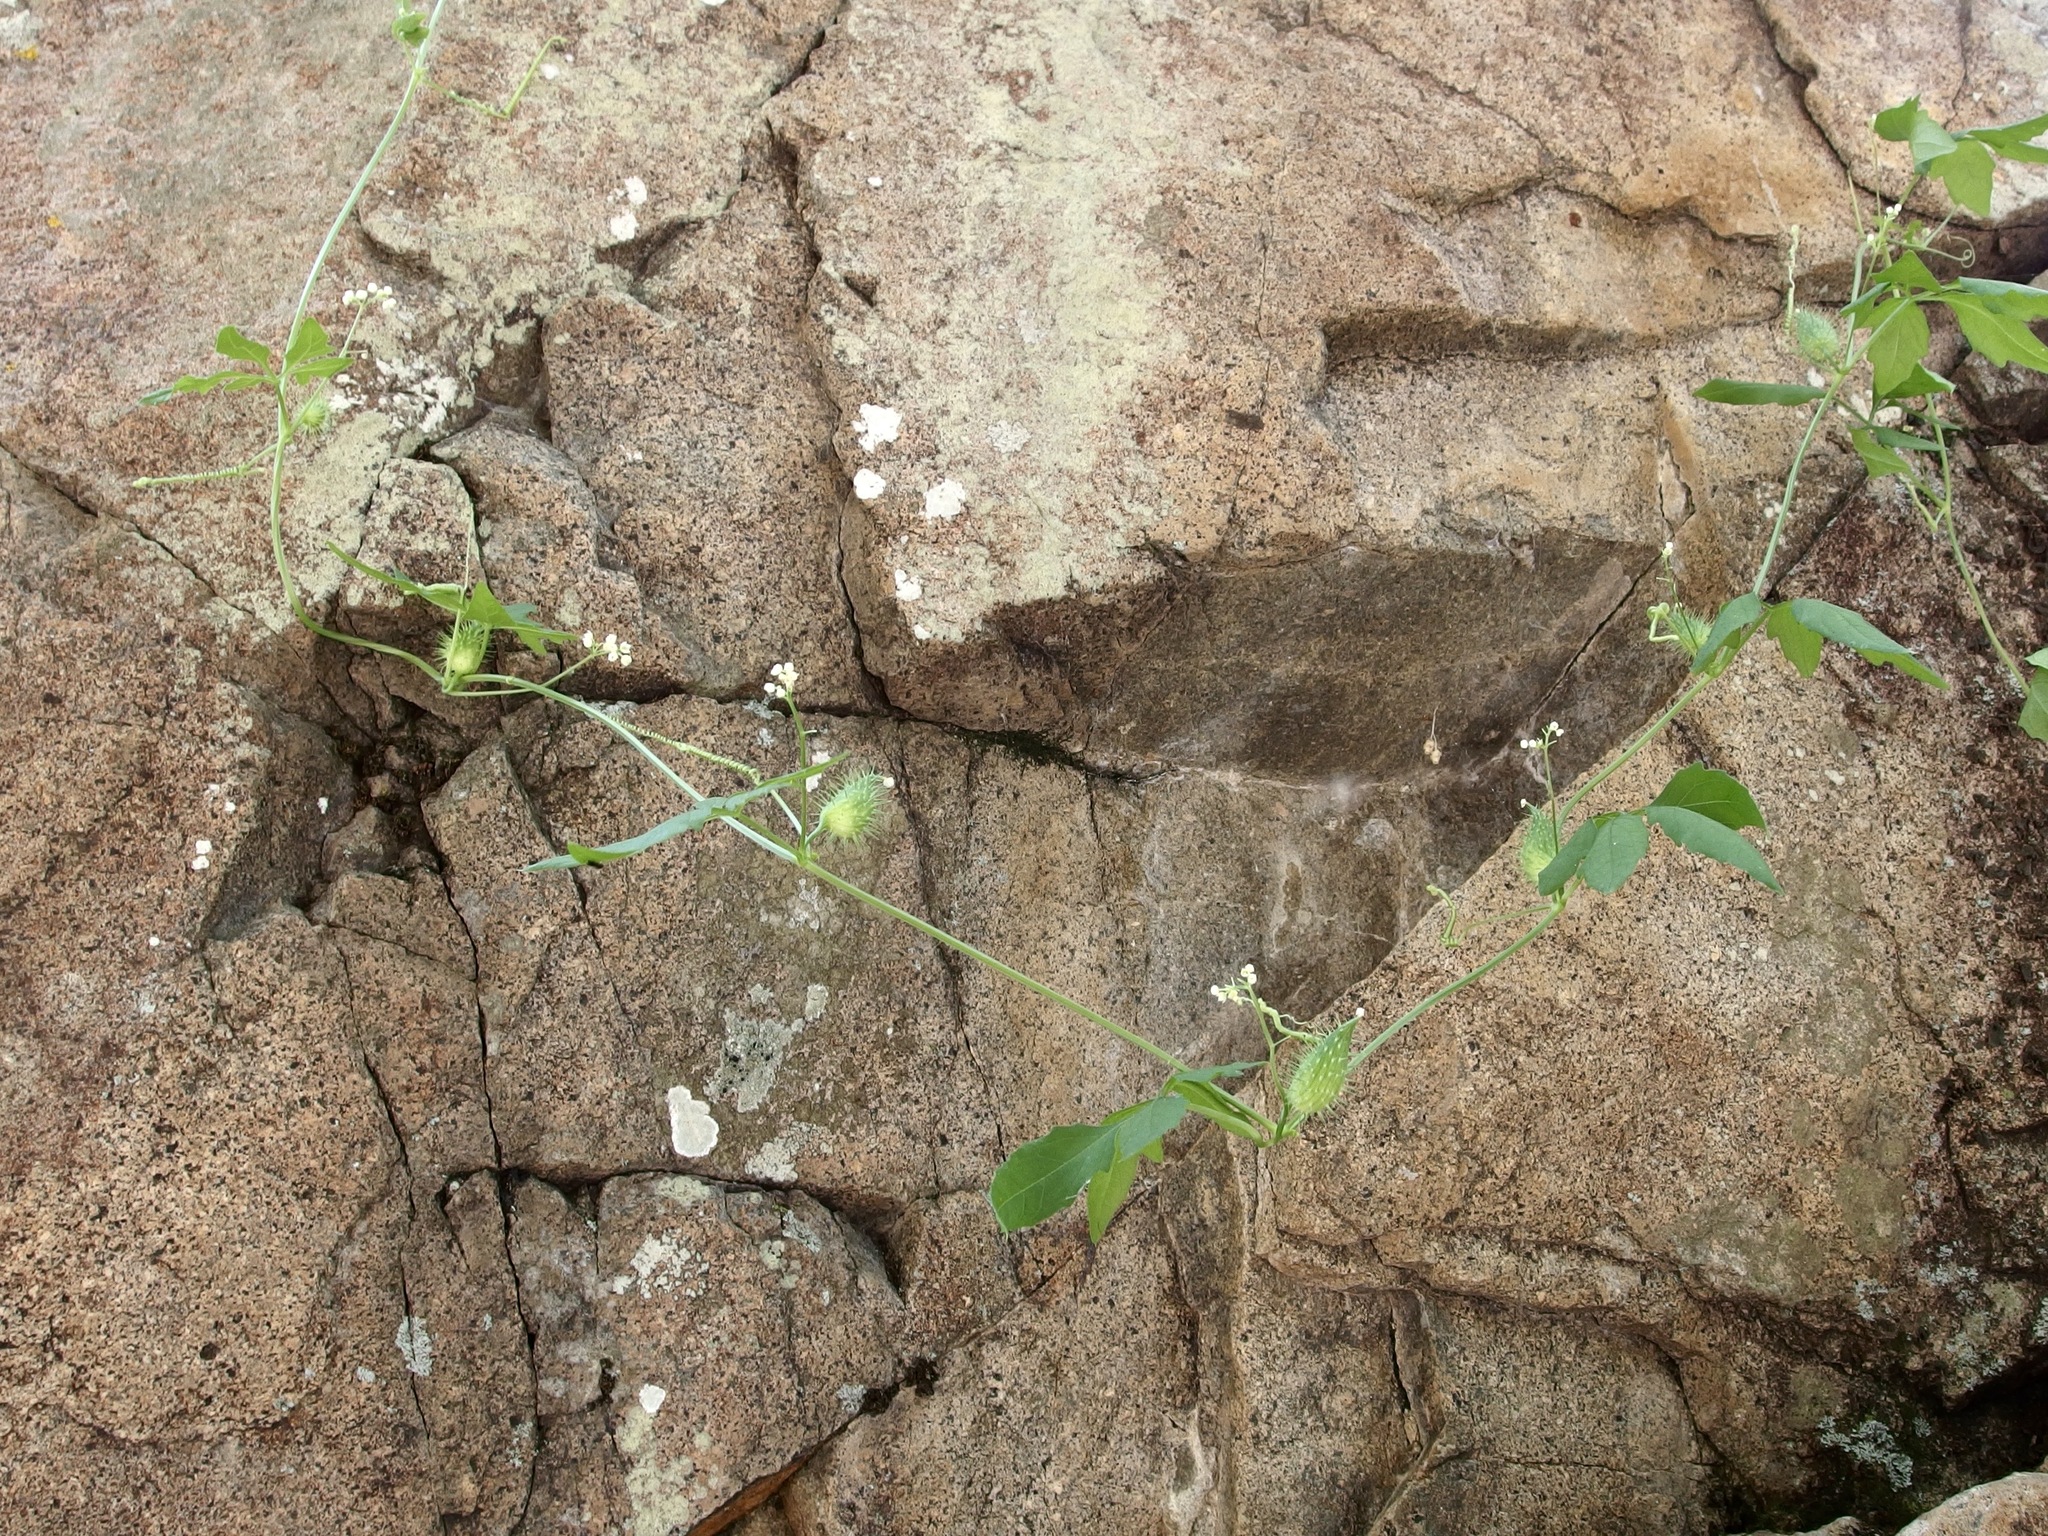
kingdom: Plantae
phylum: Tracheophyta
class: Magnoliopsida
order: Cucurbitales
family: Cucurbitaceae
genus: Cyclanthera
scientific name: Cyclanthera gracillima
